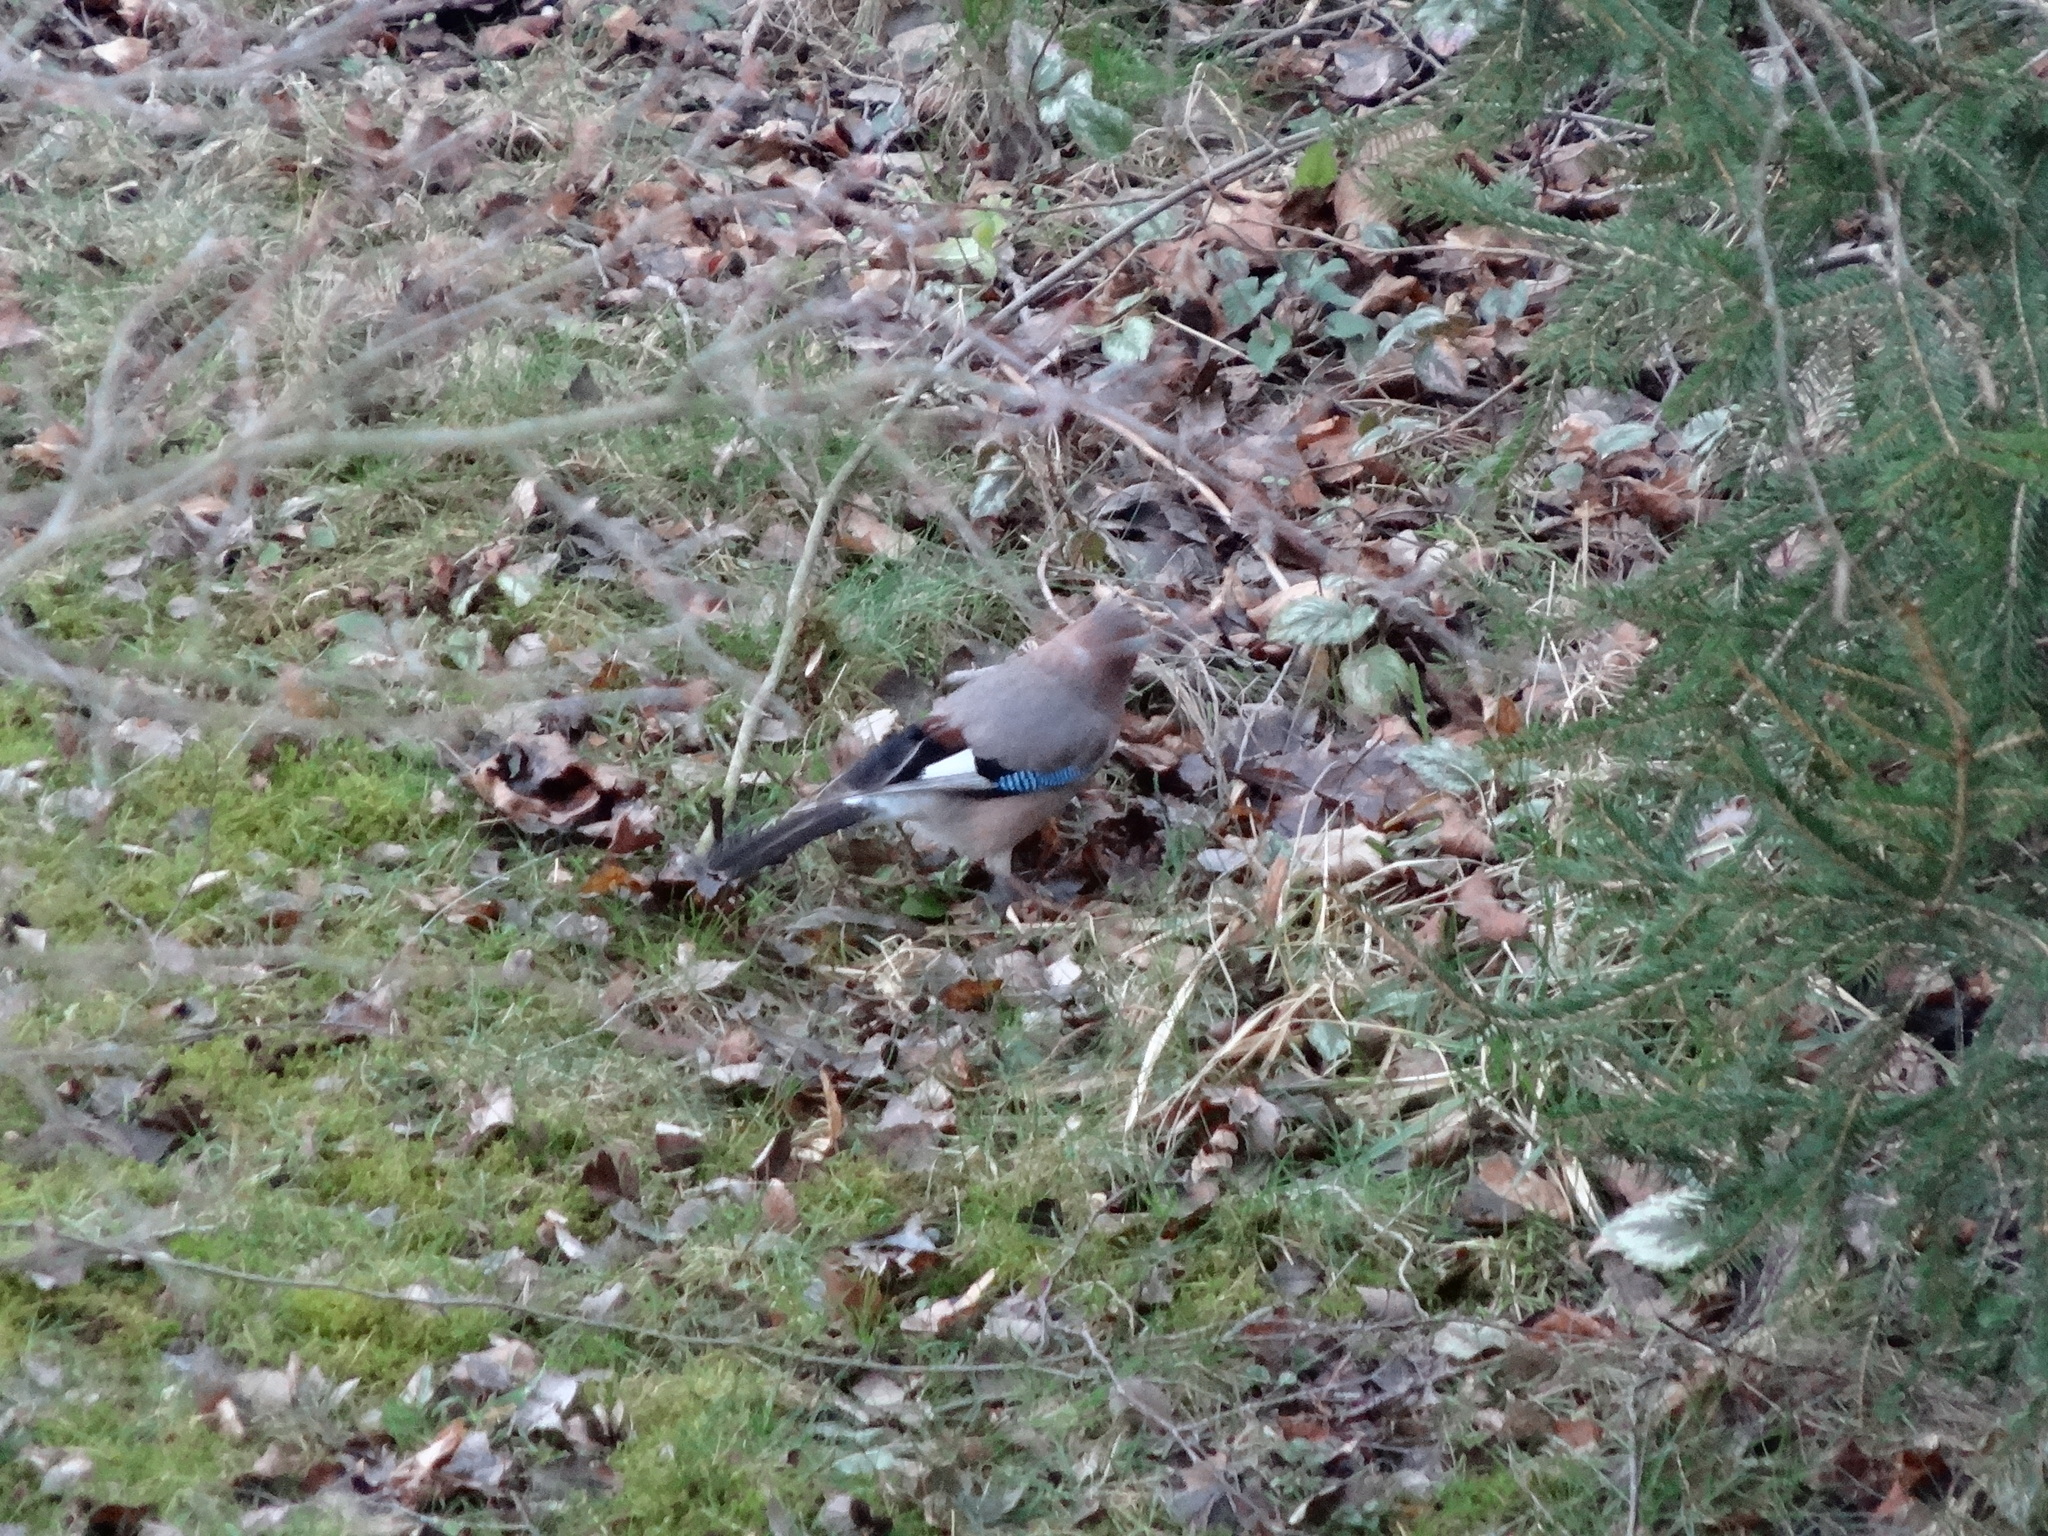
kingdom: Animalia
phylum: Chordata
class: Aves
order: Passeriformes
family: Corvidae
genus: Garrulus
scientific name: Garrulus glandarius
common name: Eurasian jay
